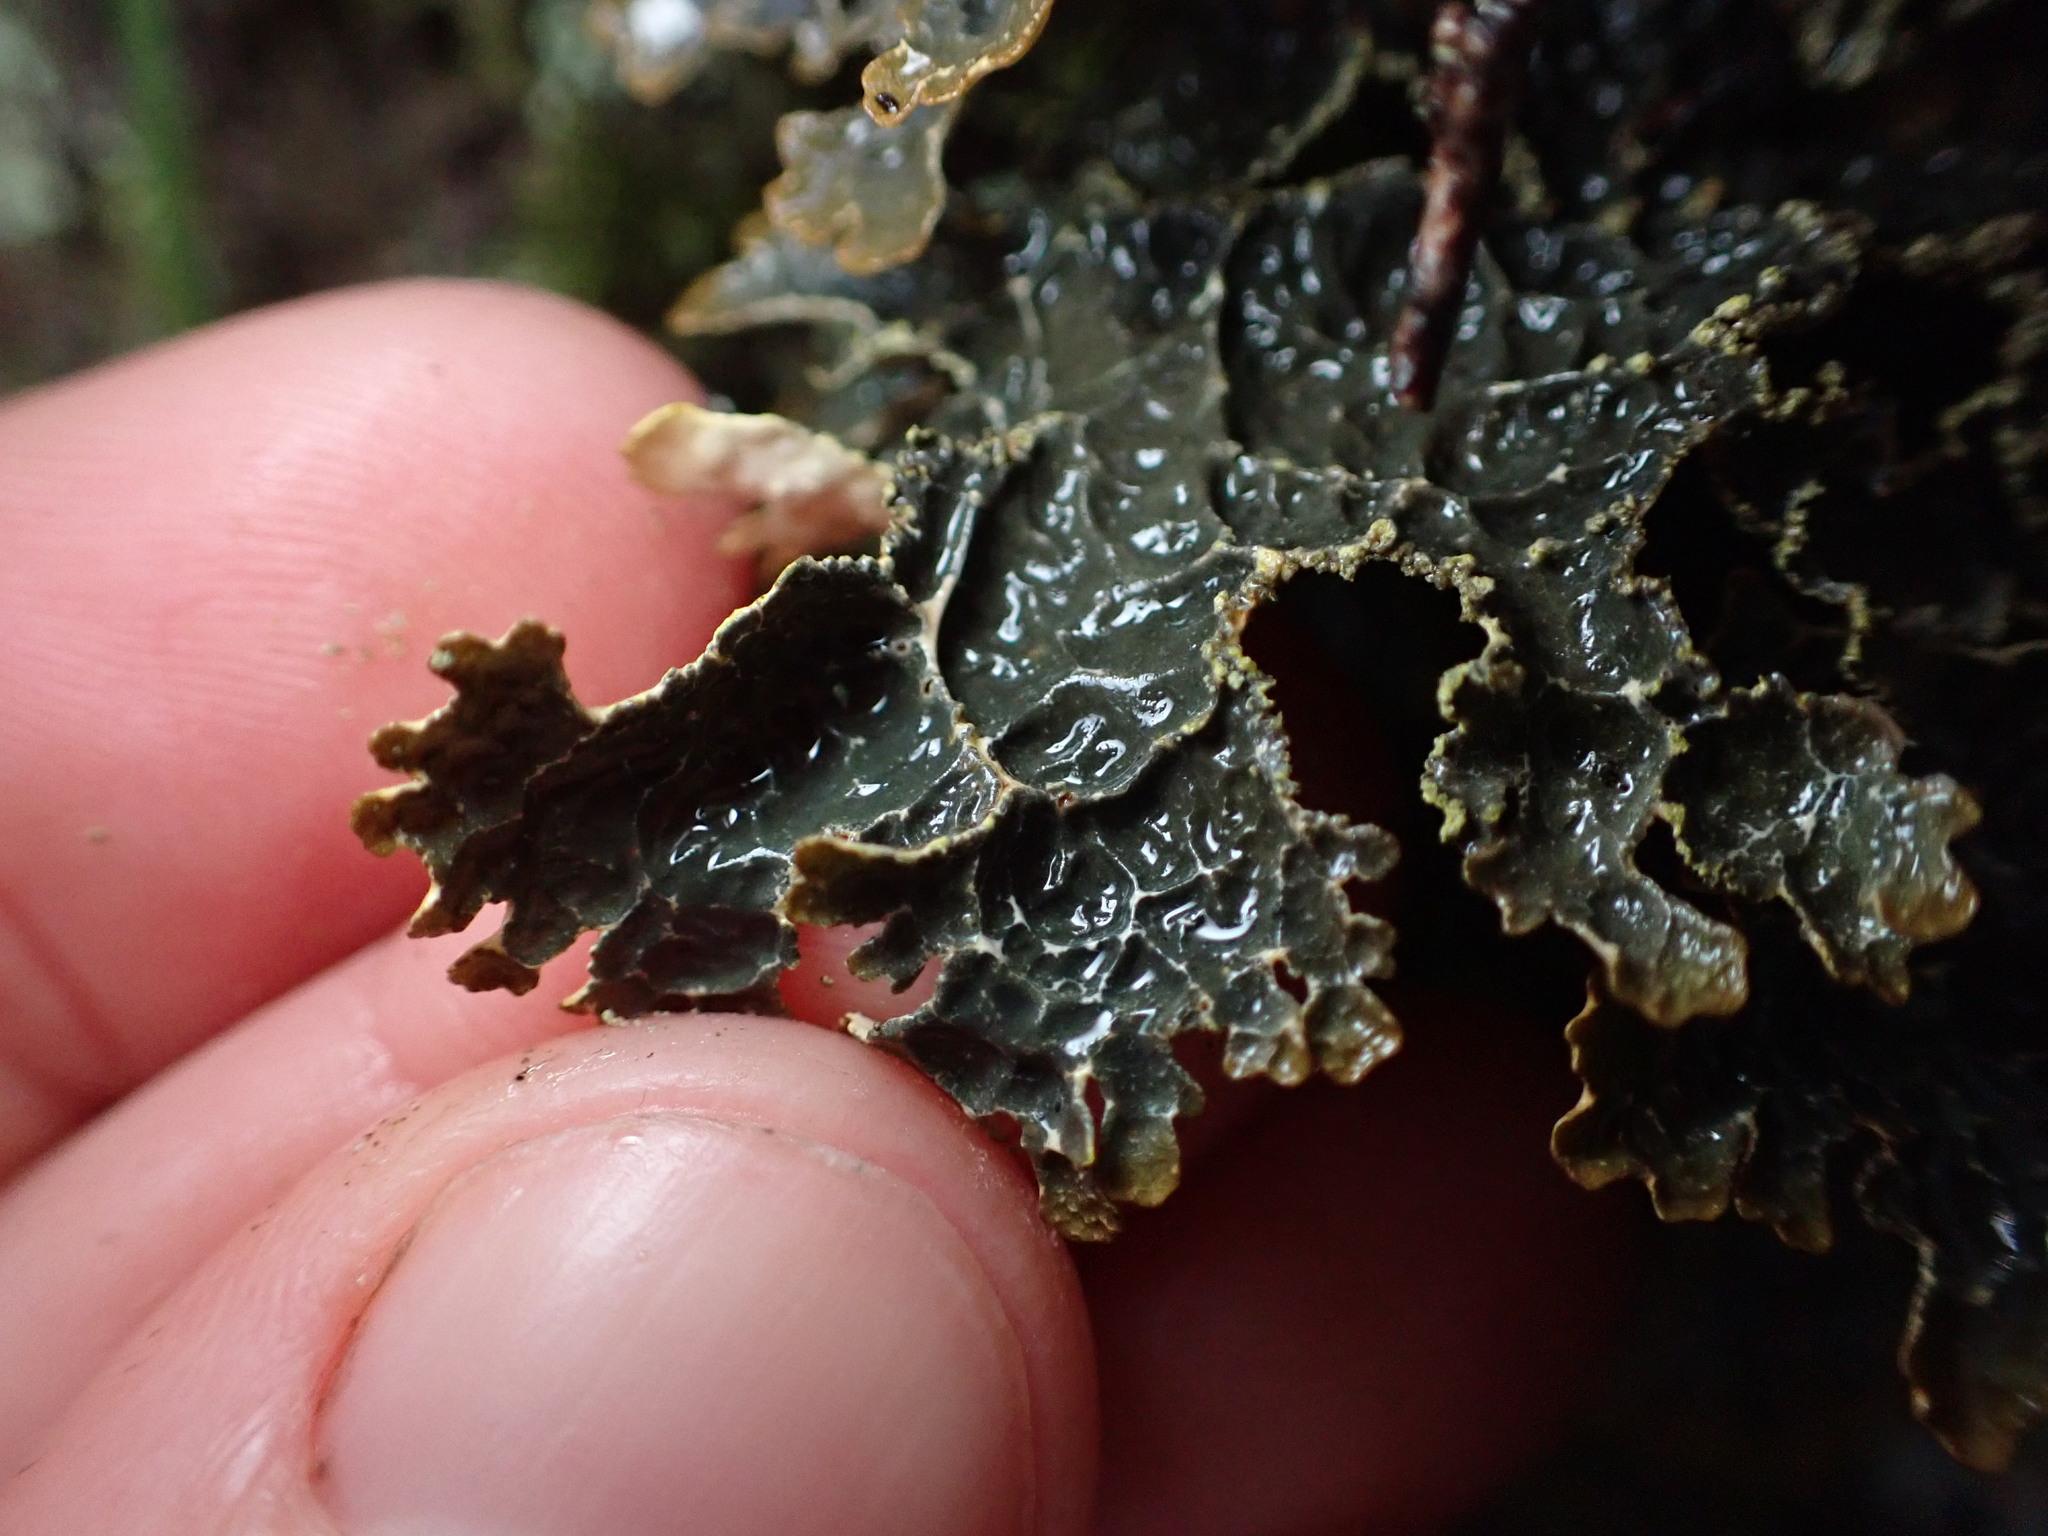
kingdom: Fungi
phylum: Ascomycota
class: Lecanoromycetes
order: Peltigerales
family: Lobariaceae
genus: Pseudocyphellaria
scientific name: Pseudocyphellaria neglecta
